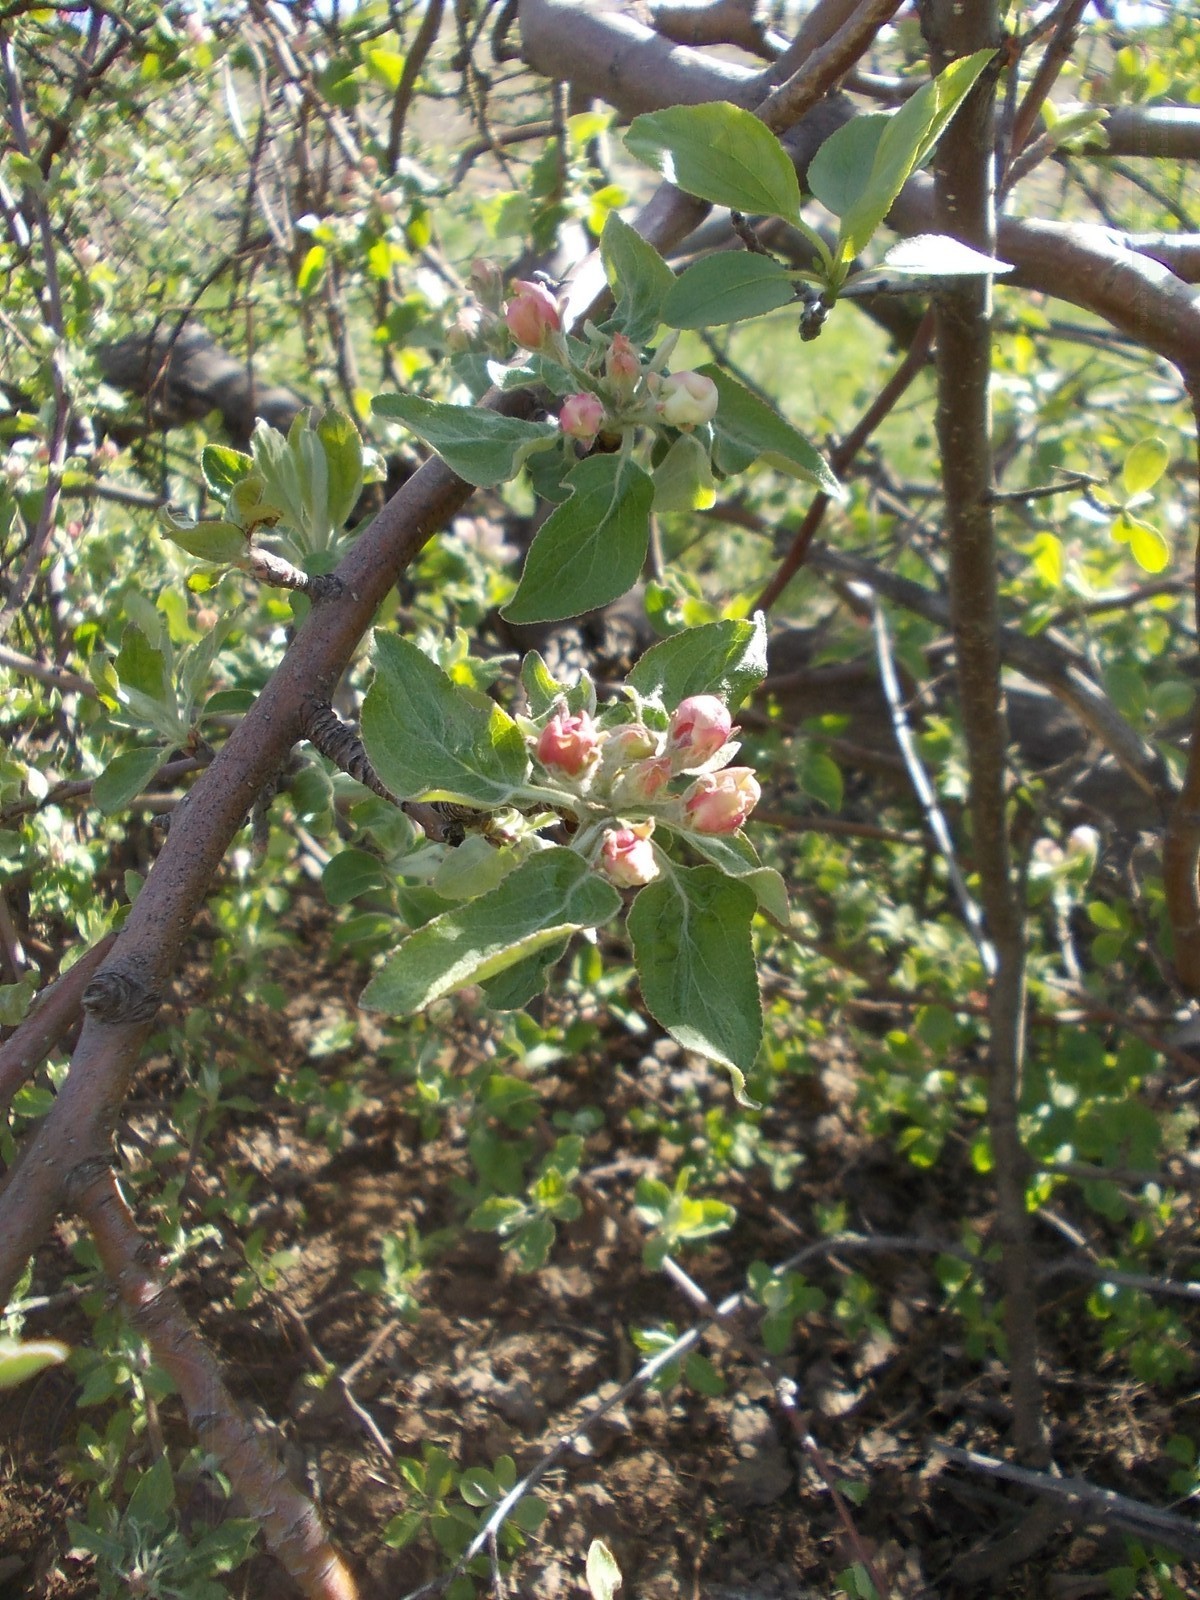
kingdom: Plantae
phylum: Tracheophyta
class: Magnoliopsida
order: Rosales
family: Rosaceae
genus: Malus
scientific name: Malus domestica
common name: Apple
